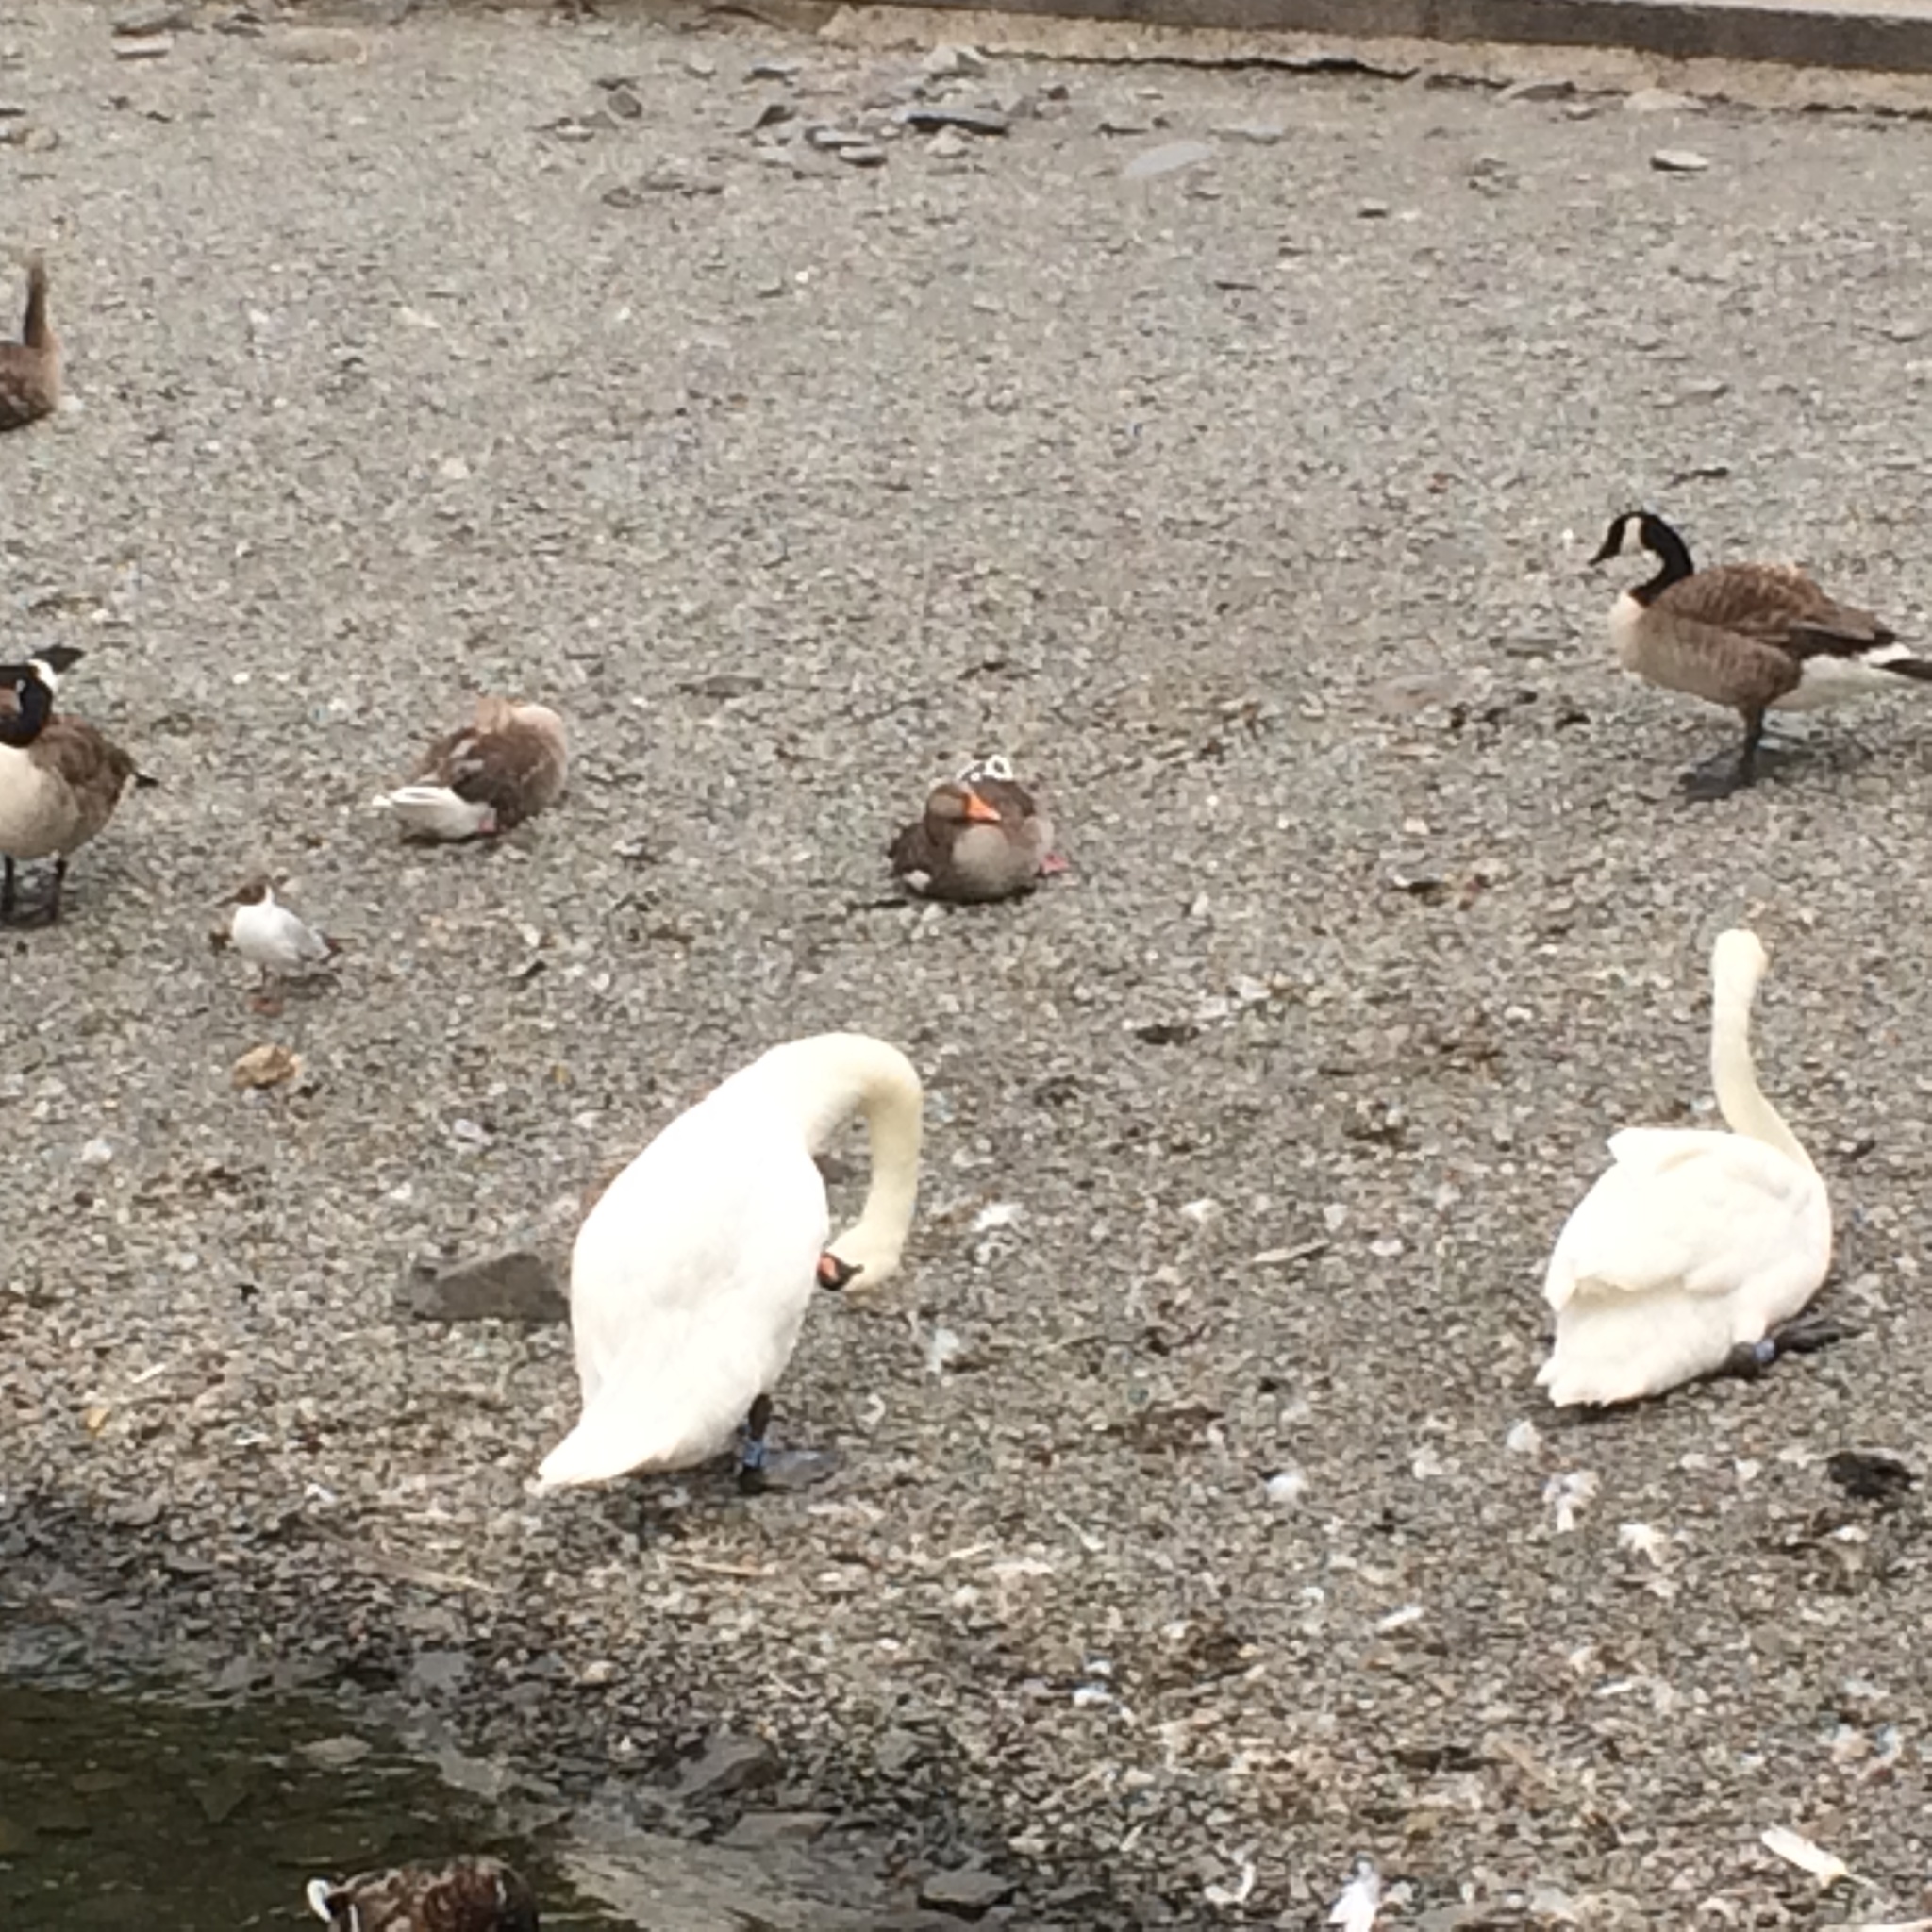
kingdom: Animalia
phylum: Chordata
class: Aves
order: Charadriiformes
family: Laridae
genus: Chroicocephalus
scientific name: Chroicocephalus ridibundus
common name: Black-headed gull
